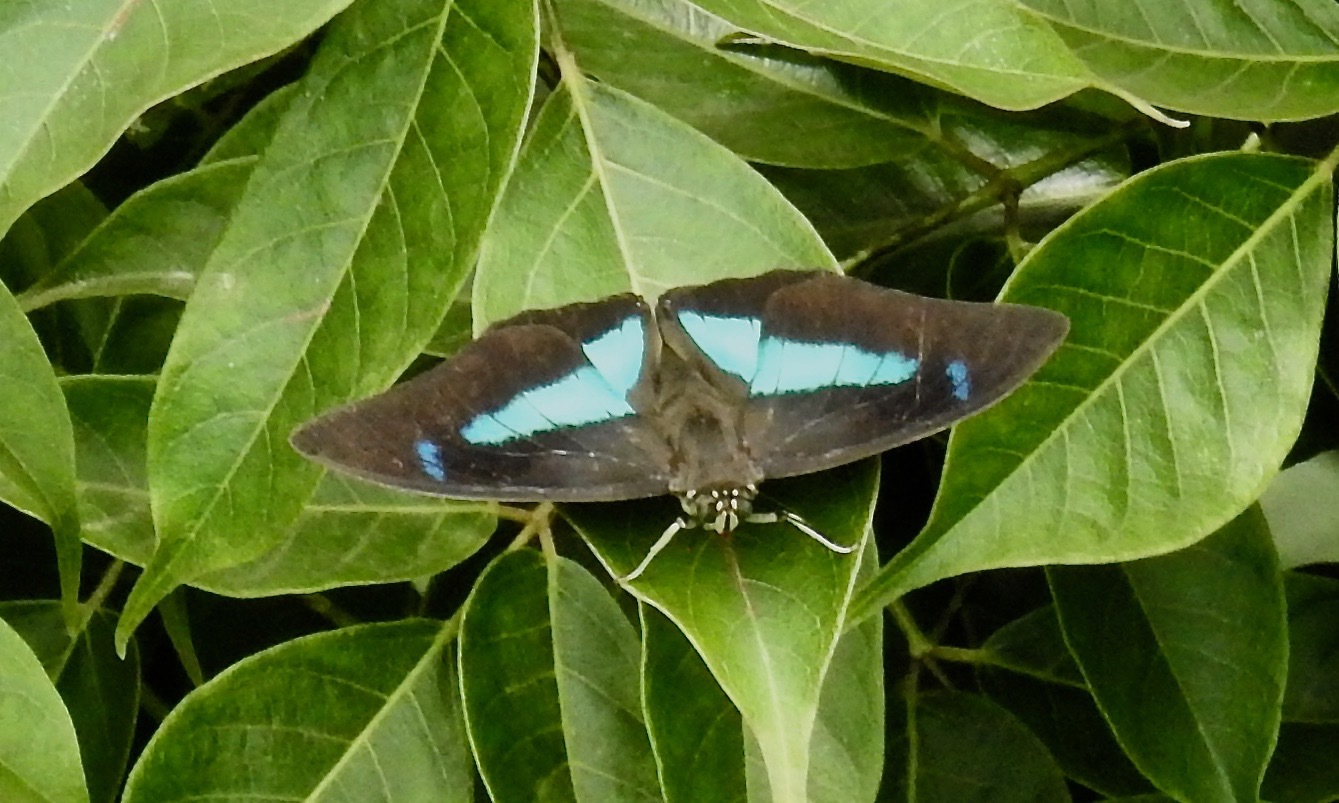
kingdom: Animalia
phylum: Arthropoda
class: Insecta
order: Lepidoptera
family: Nymphalidae
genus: Prepona
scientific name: Prepona demophon
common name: One-spotted prepona
